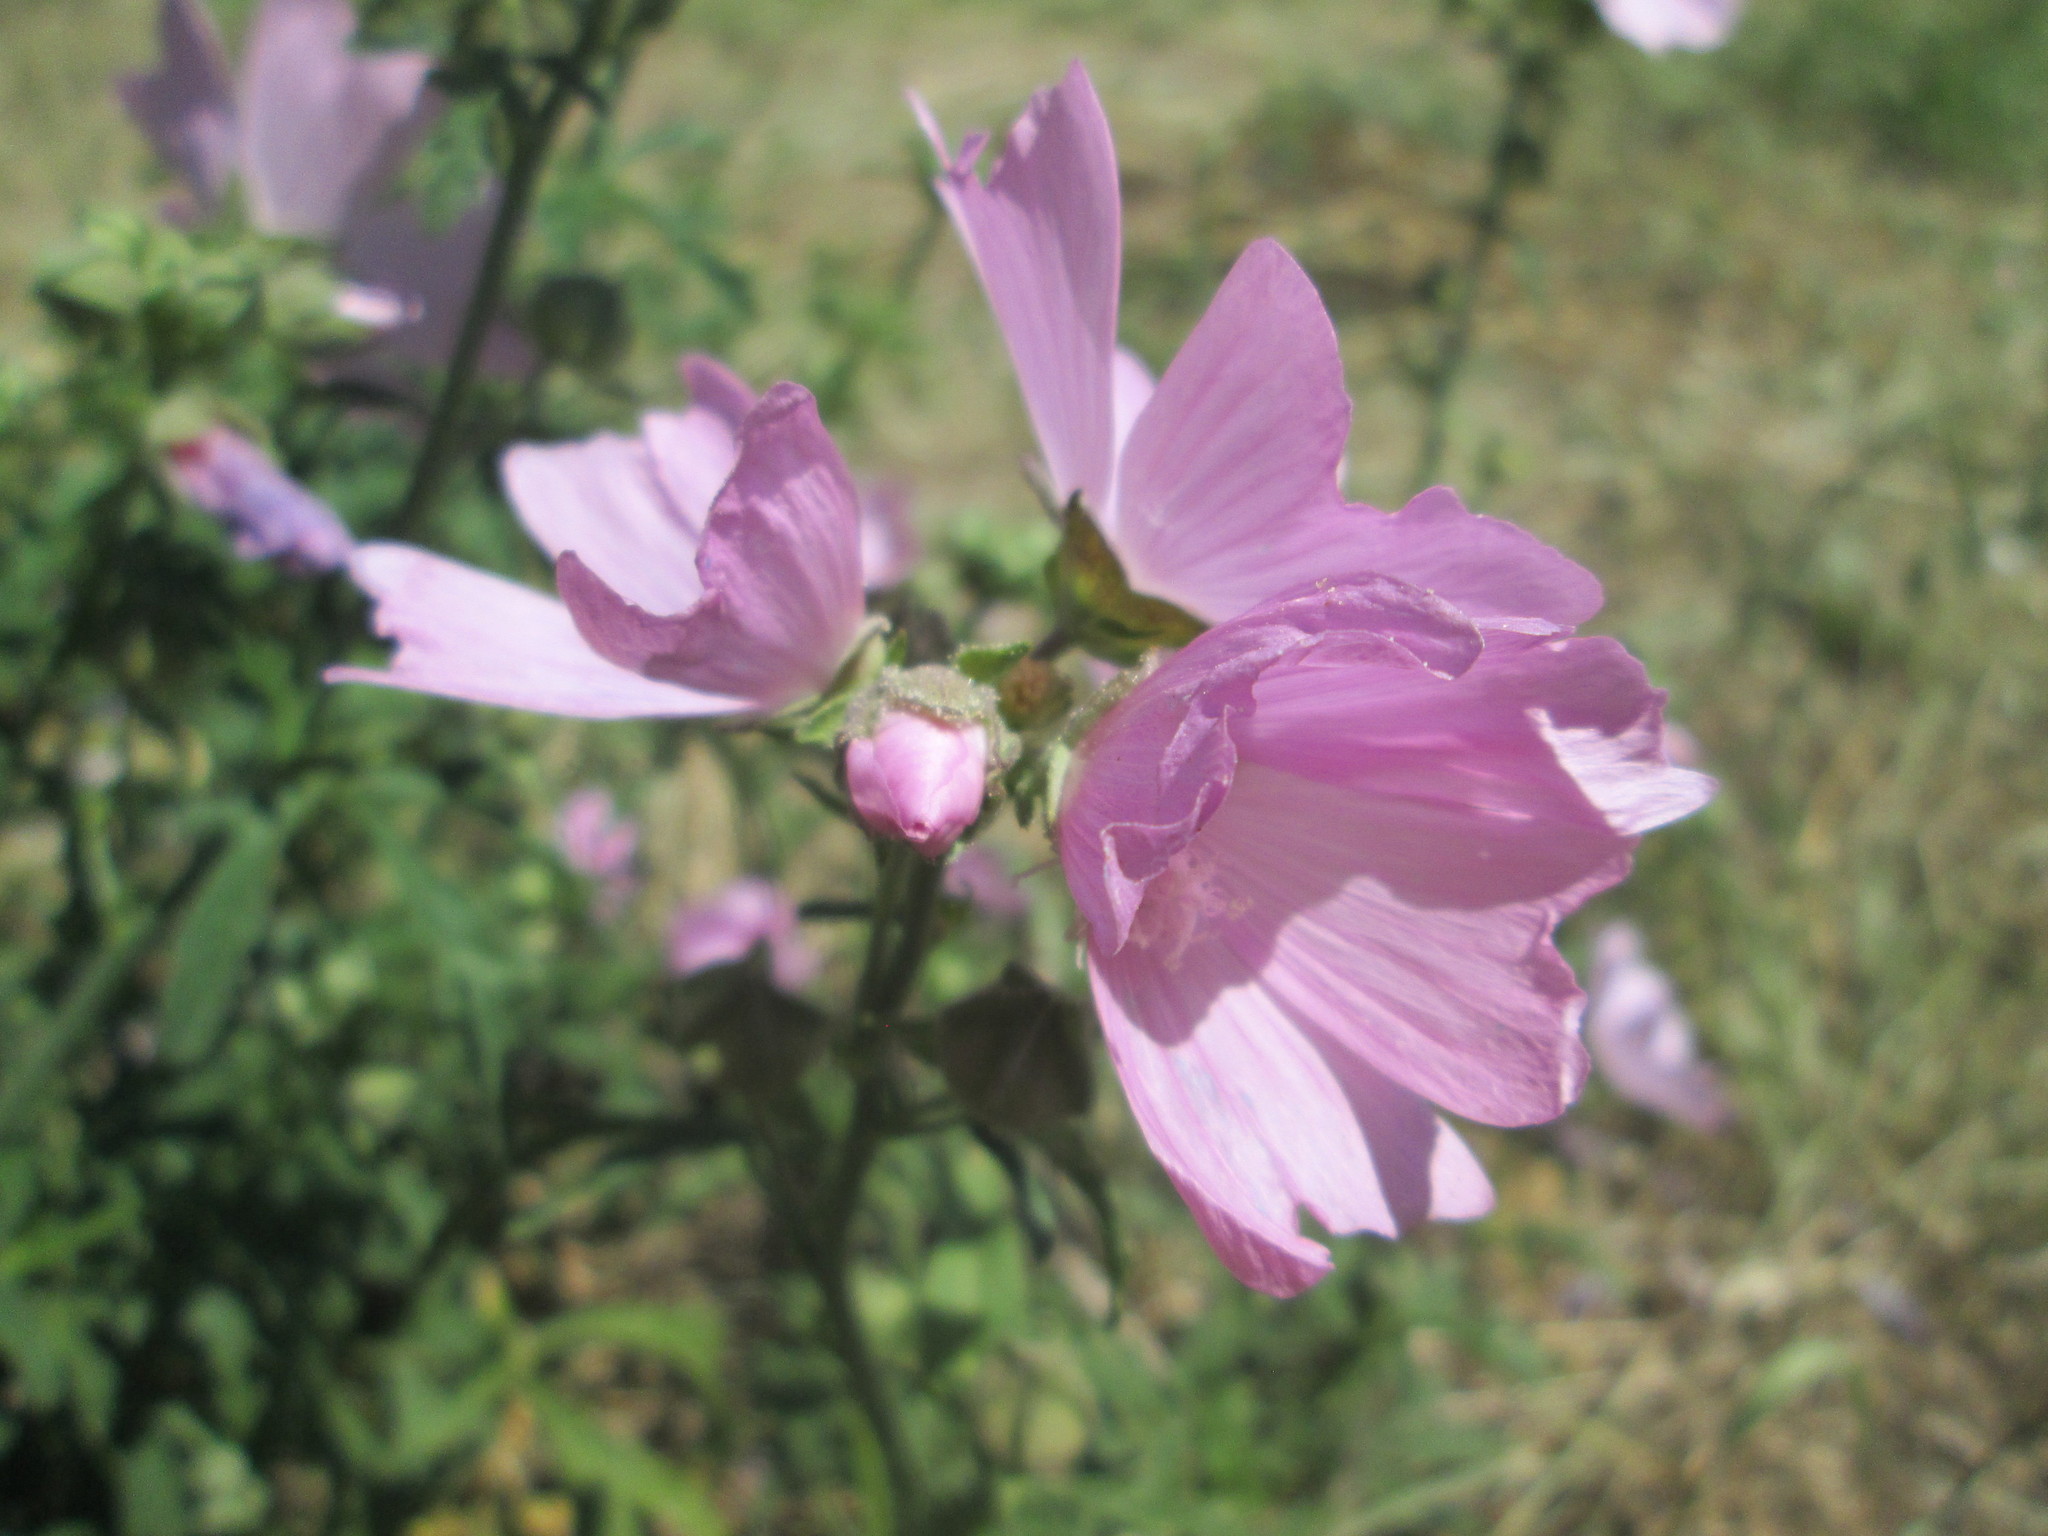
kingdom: Plantae
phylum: Tracheophyta
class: Magnoliopsida
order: Malvales
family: Malvaceae
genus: Malva
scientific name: Malva alcea
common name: Greater musk-mallow
